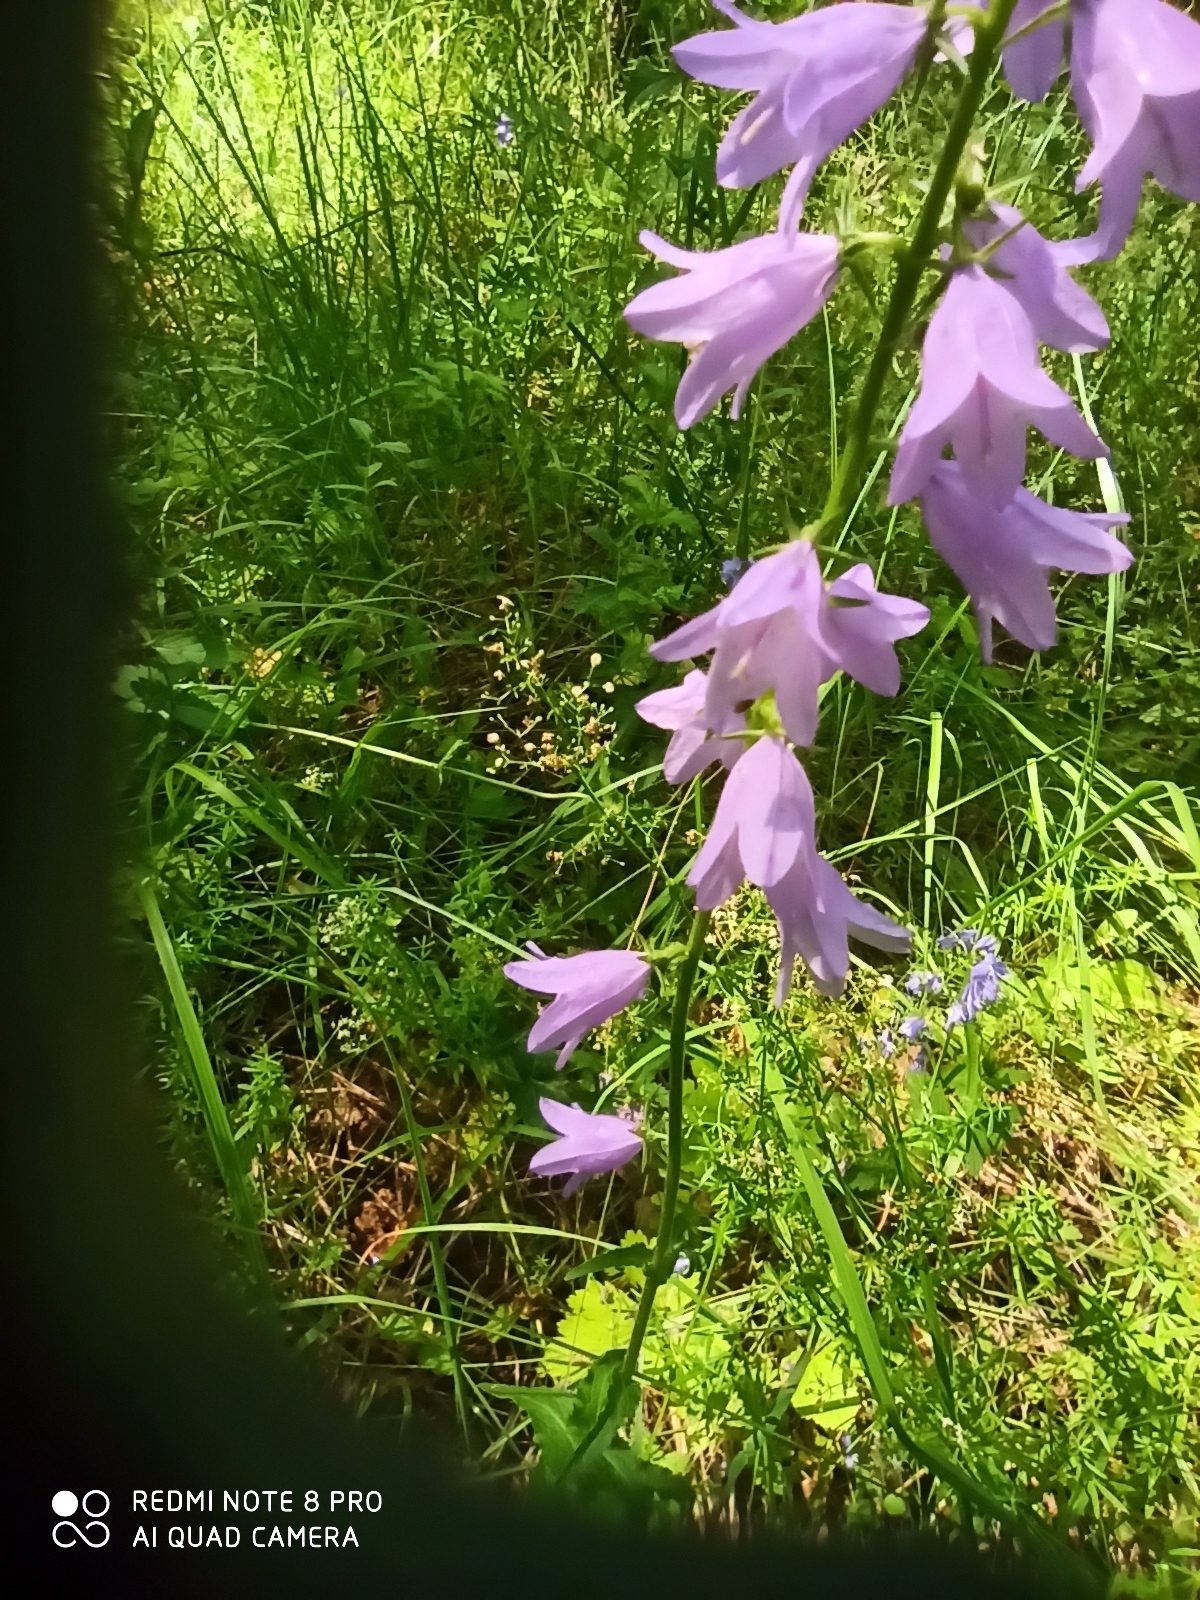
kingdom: Plantae
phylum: Tracheophyta
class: Magnoliopsida
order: Asterales
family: Campanulaceae
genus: Campanula
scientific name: Campanula bononiensis
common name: Pale bellflower
